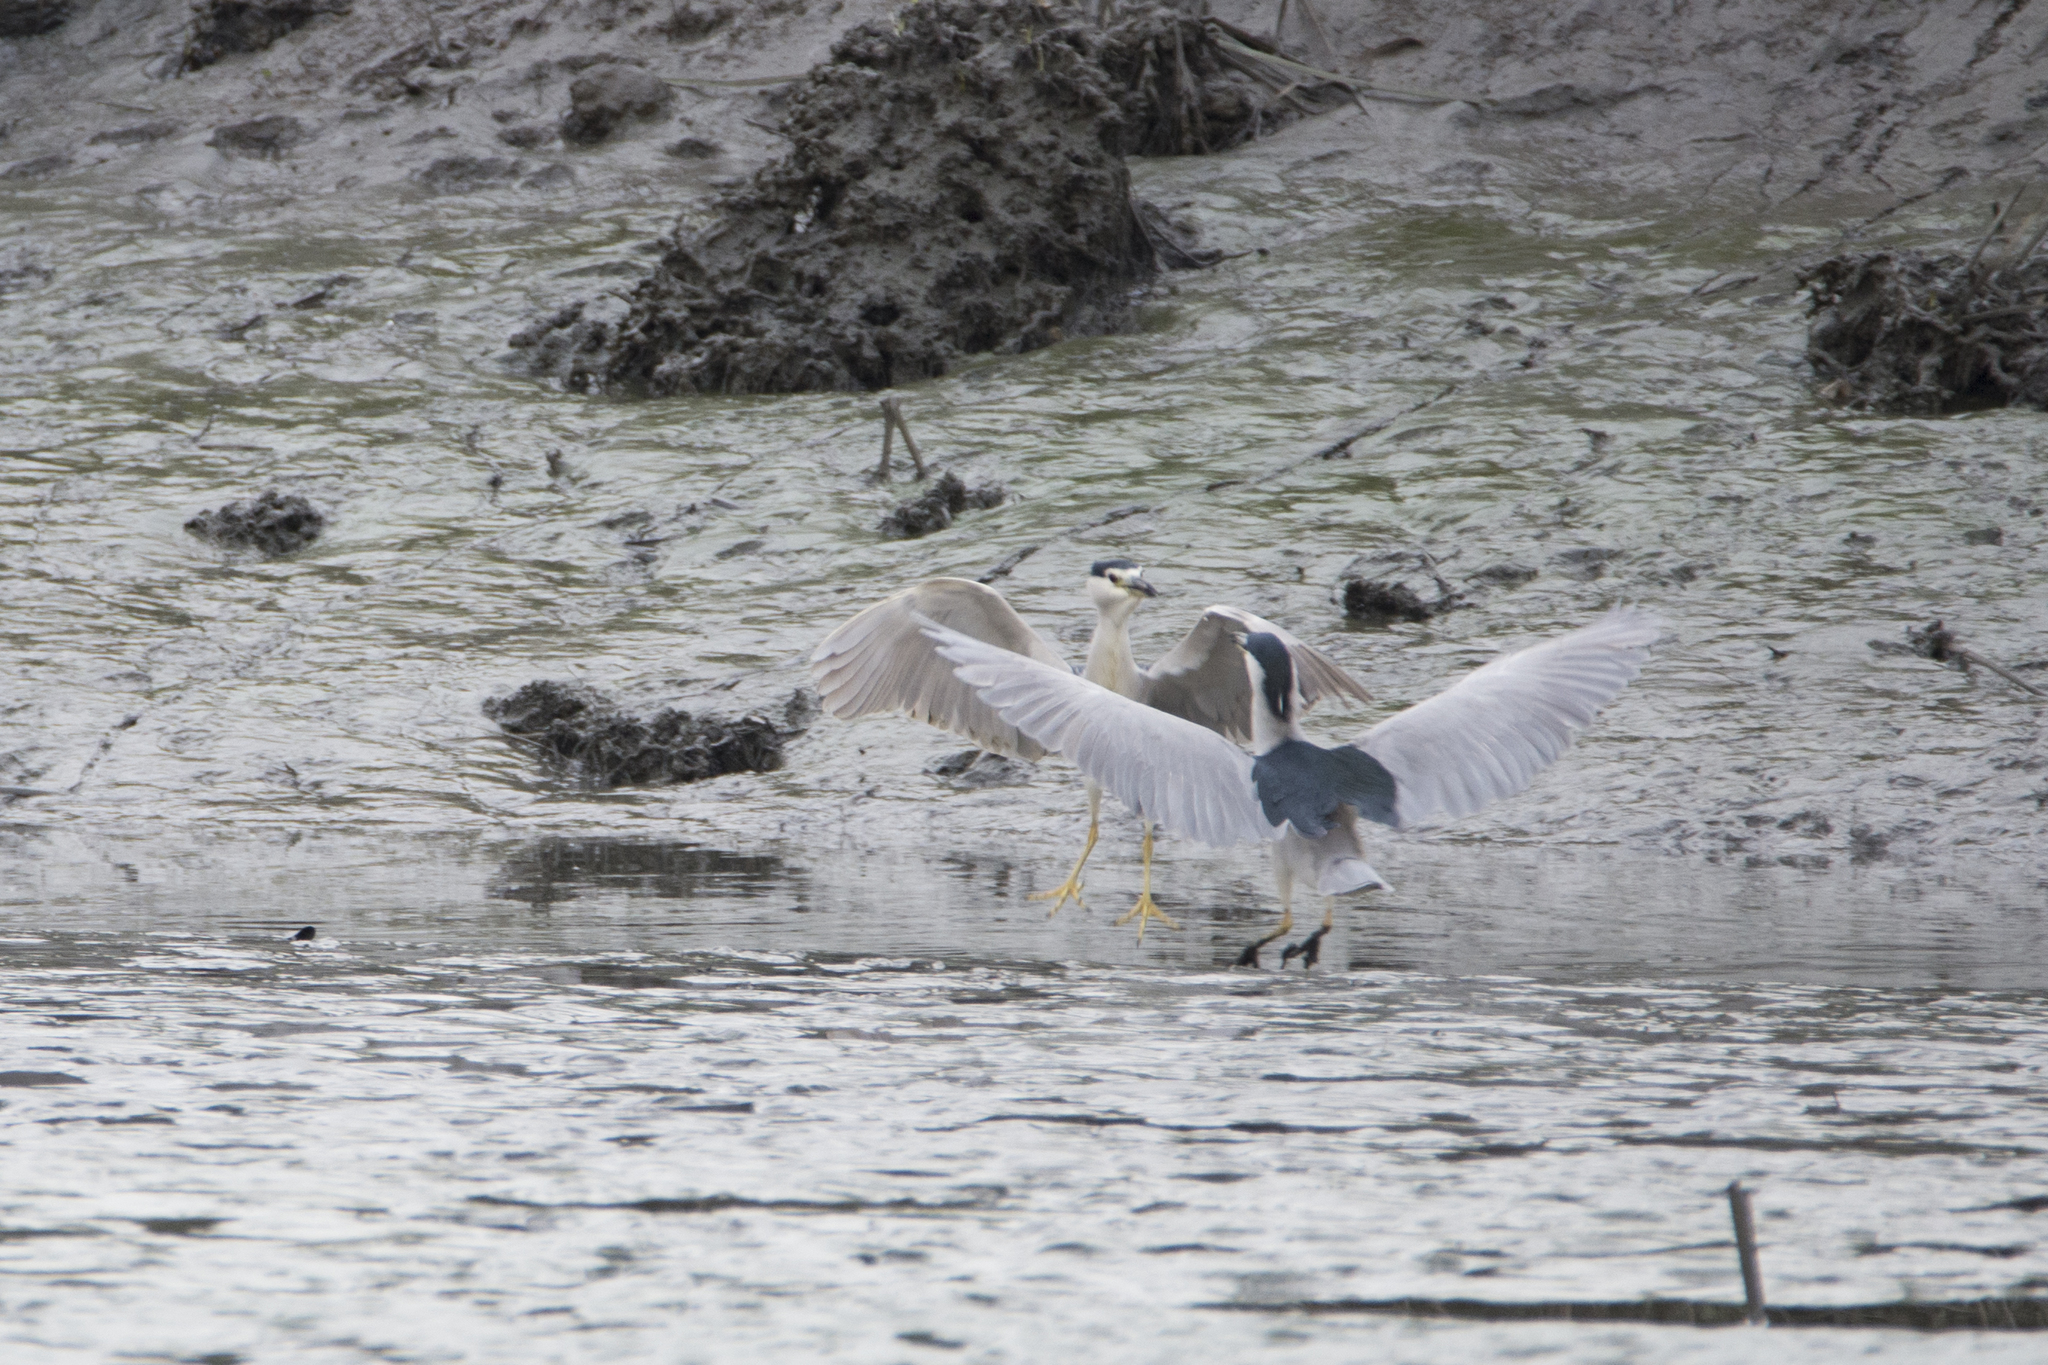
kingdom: Animalia
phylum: Chordata
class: Aves
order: Pelecaniformes
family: Ardeidae
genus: Nycticorax
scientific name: Nycticorax nycticorax
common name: Black-crowned night heron
